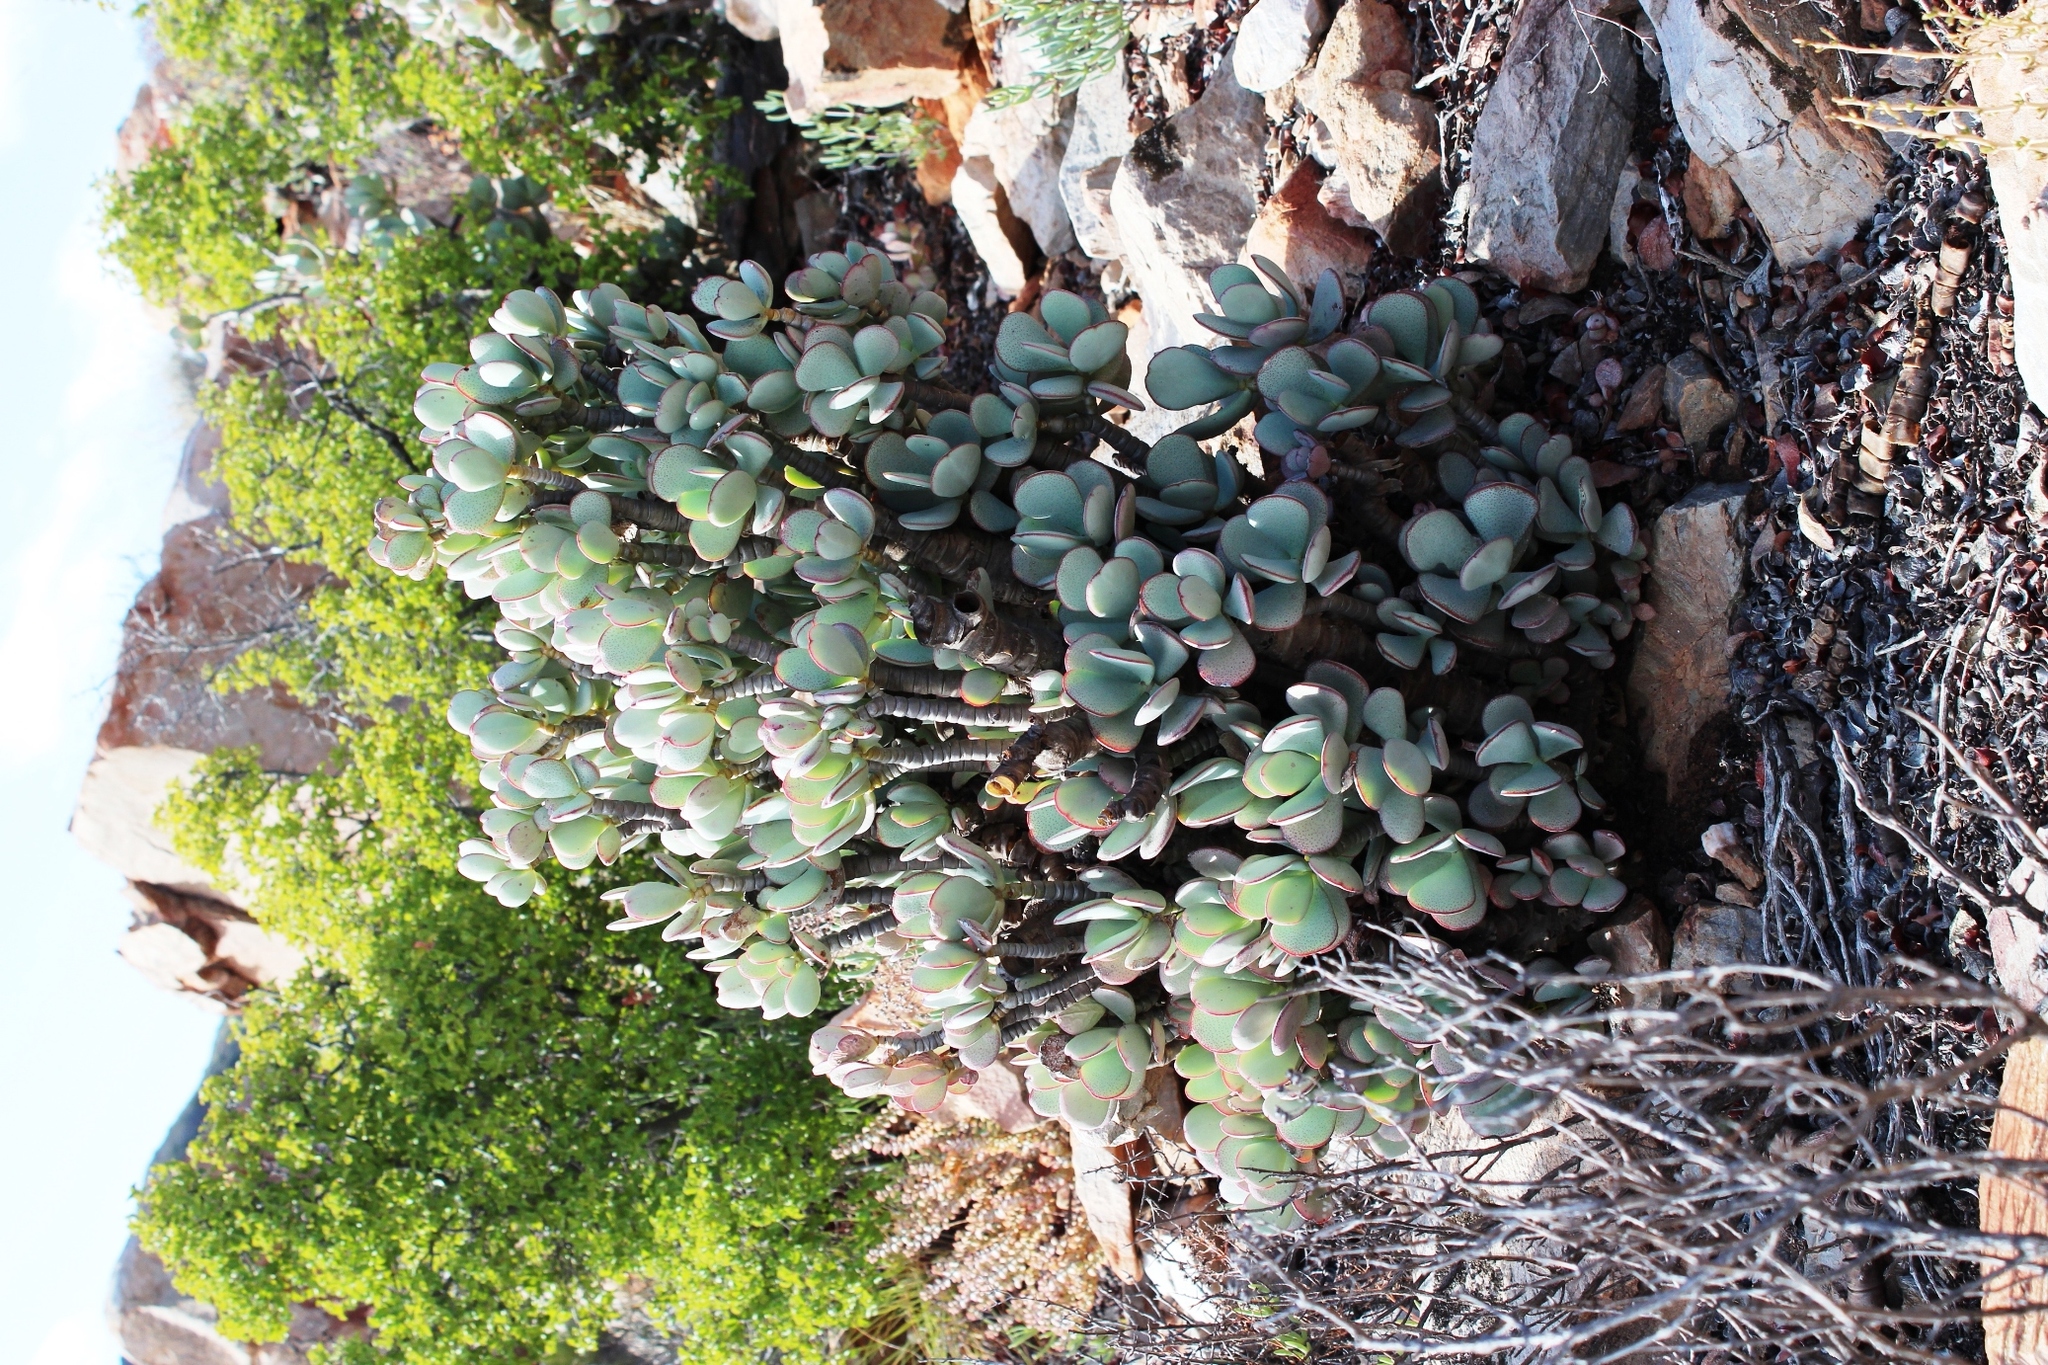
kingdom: Plantae
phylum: Tracheophyta
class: Magnoliopsida
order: Saxifragales
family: Crassulaceae
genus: Crassula
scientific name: Crassula arborescens
